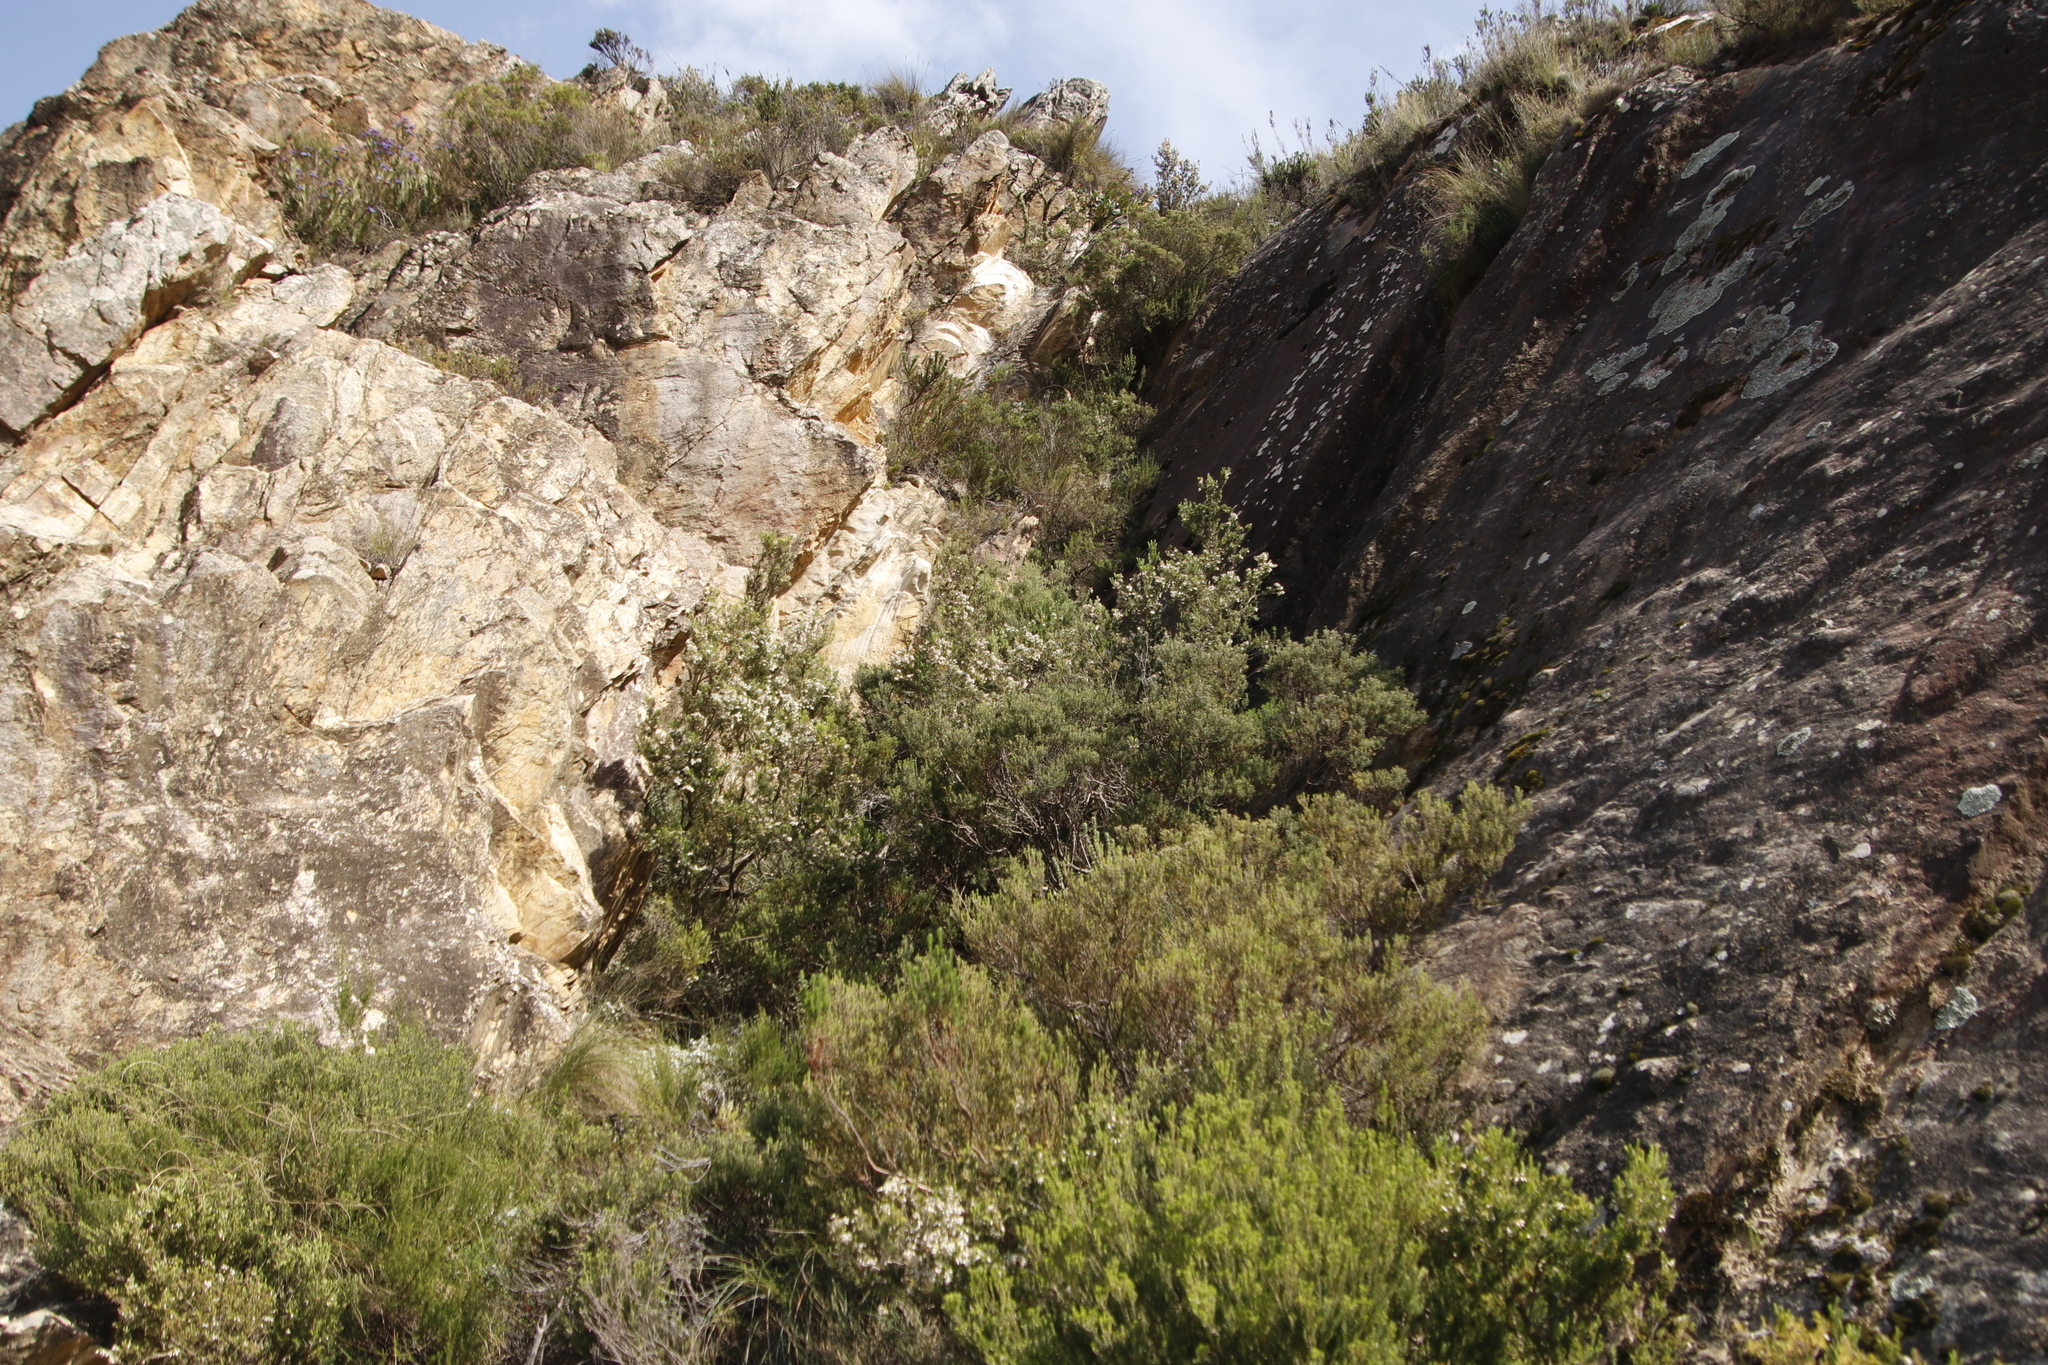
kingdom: Plantae
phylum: Tracheophyta
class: Magnoliopsida
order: Ericales
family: Ericaceae
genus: Erica
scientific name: Erica caffra
